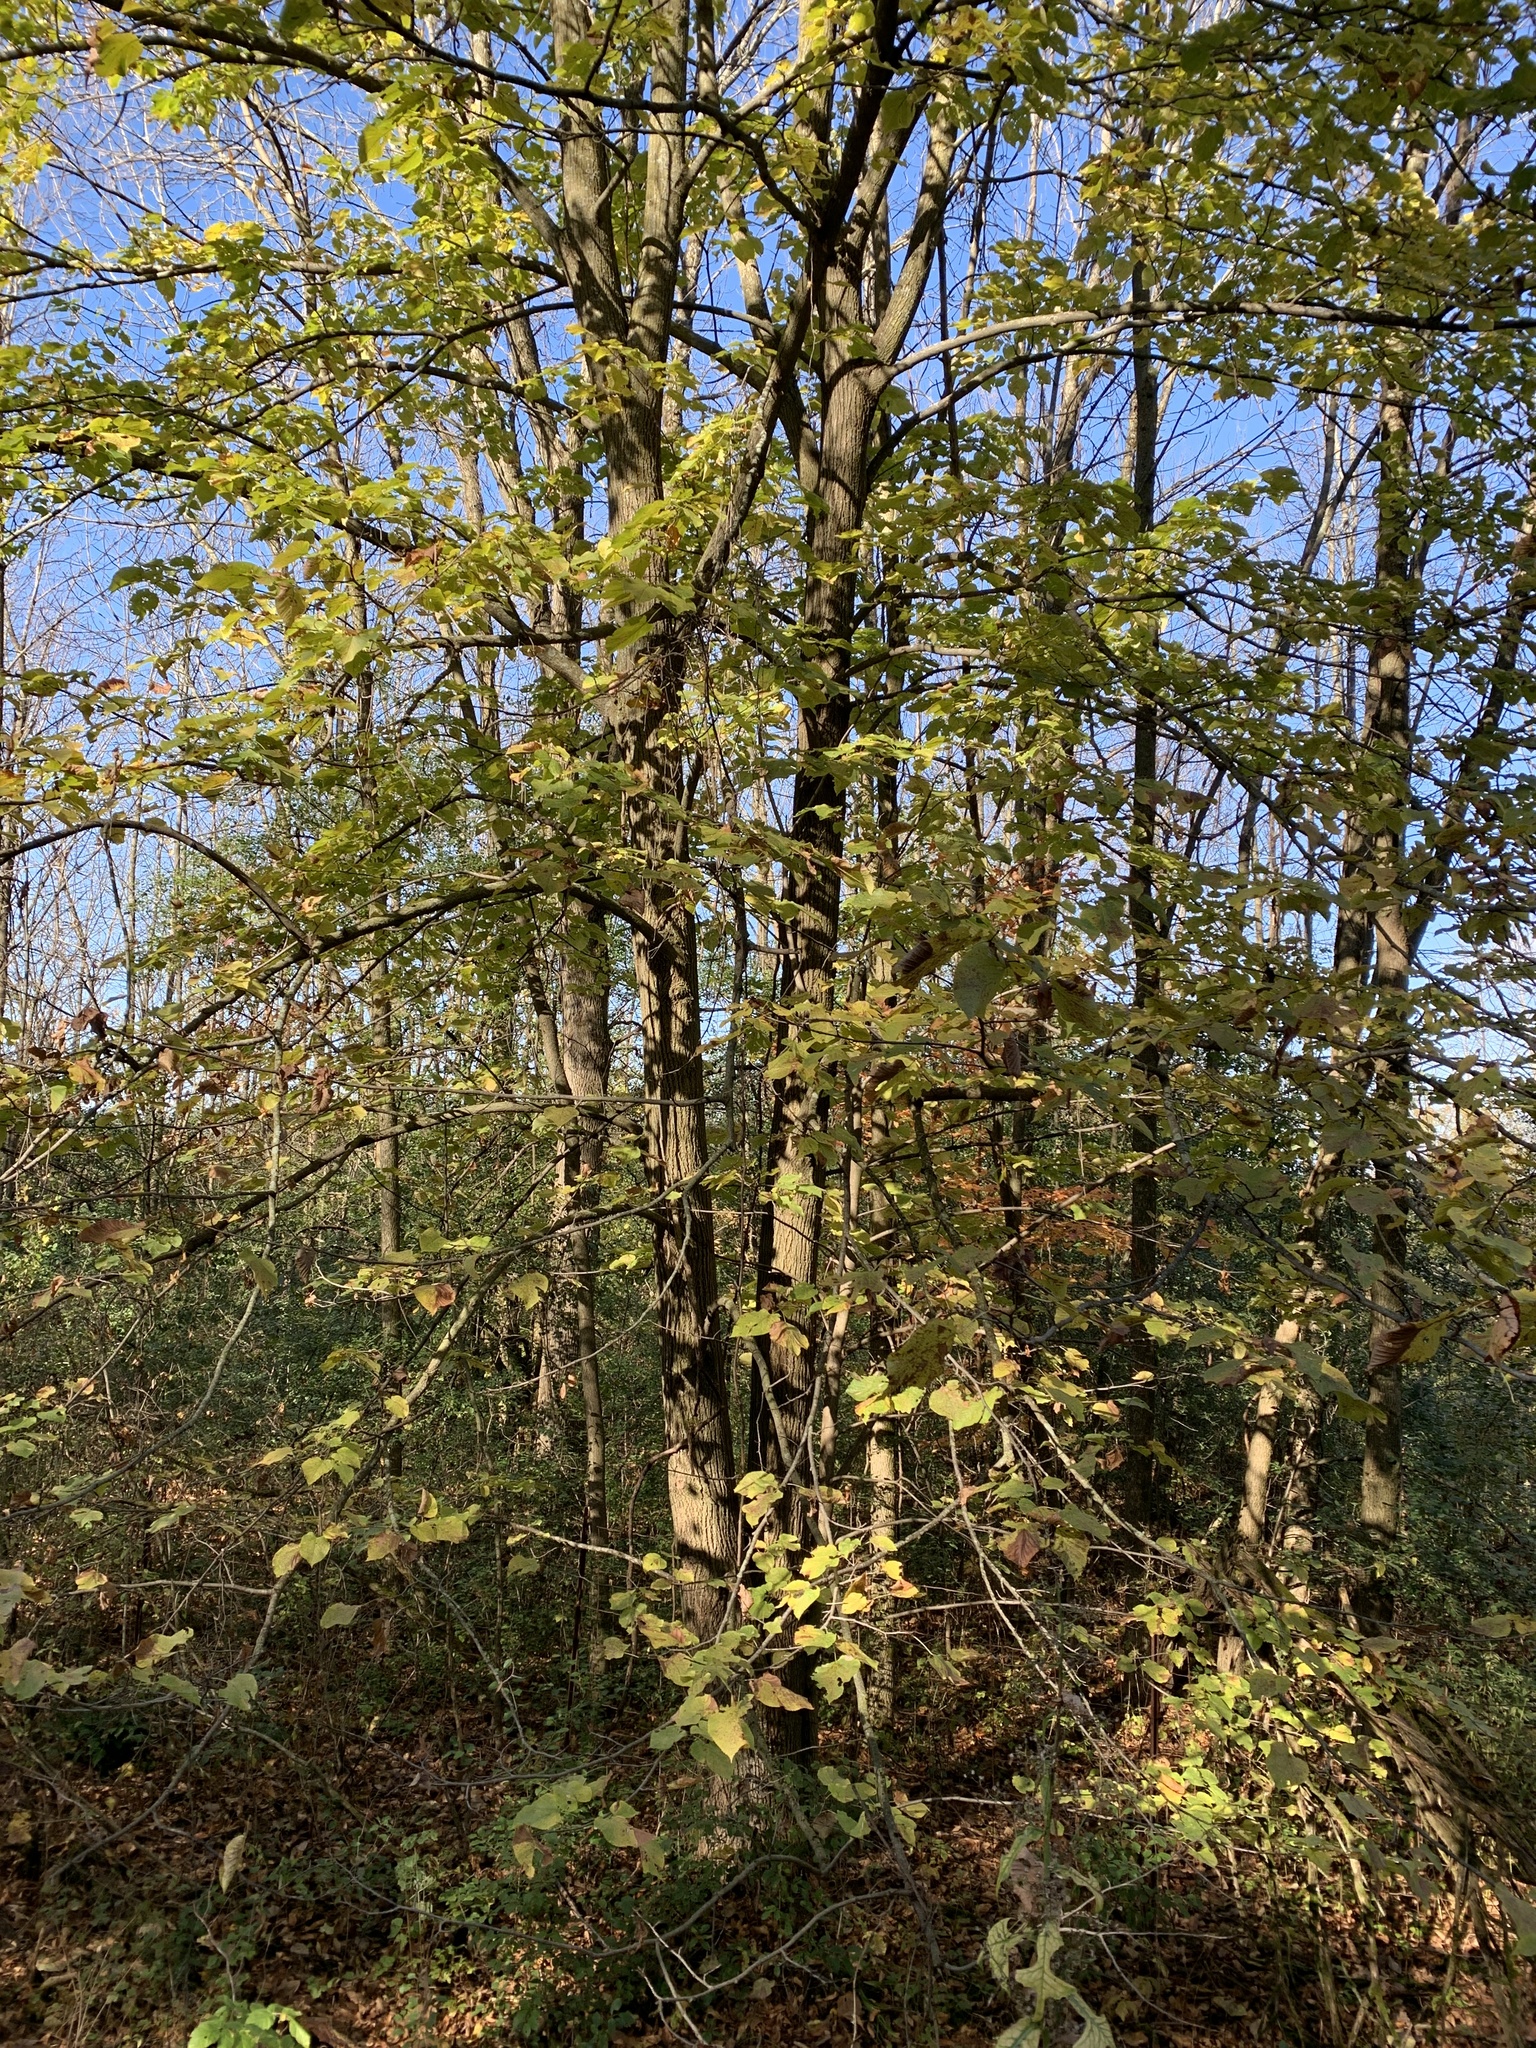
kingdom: Plantae
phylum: Tracheophyta
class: Magnoliopsida
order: Malvales
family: Malvaceae
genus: Tilia
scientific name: Tilia americana
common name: Basswood
